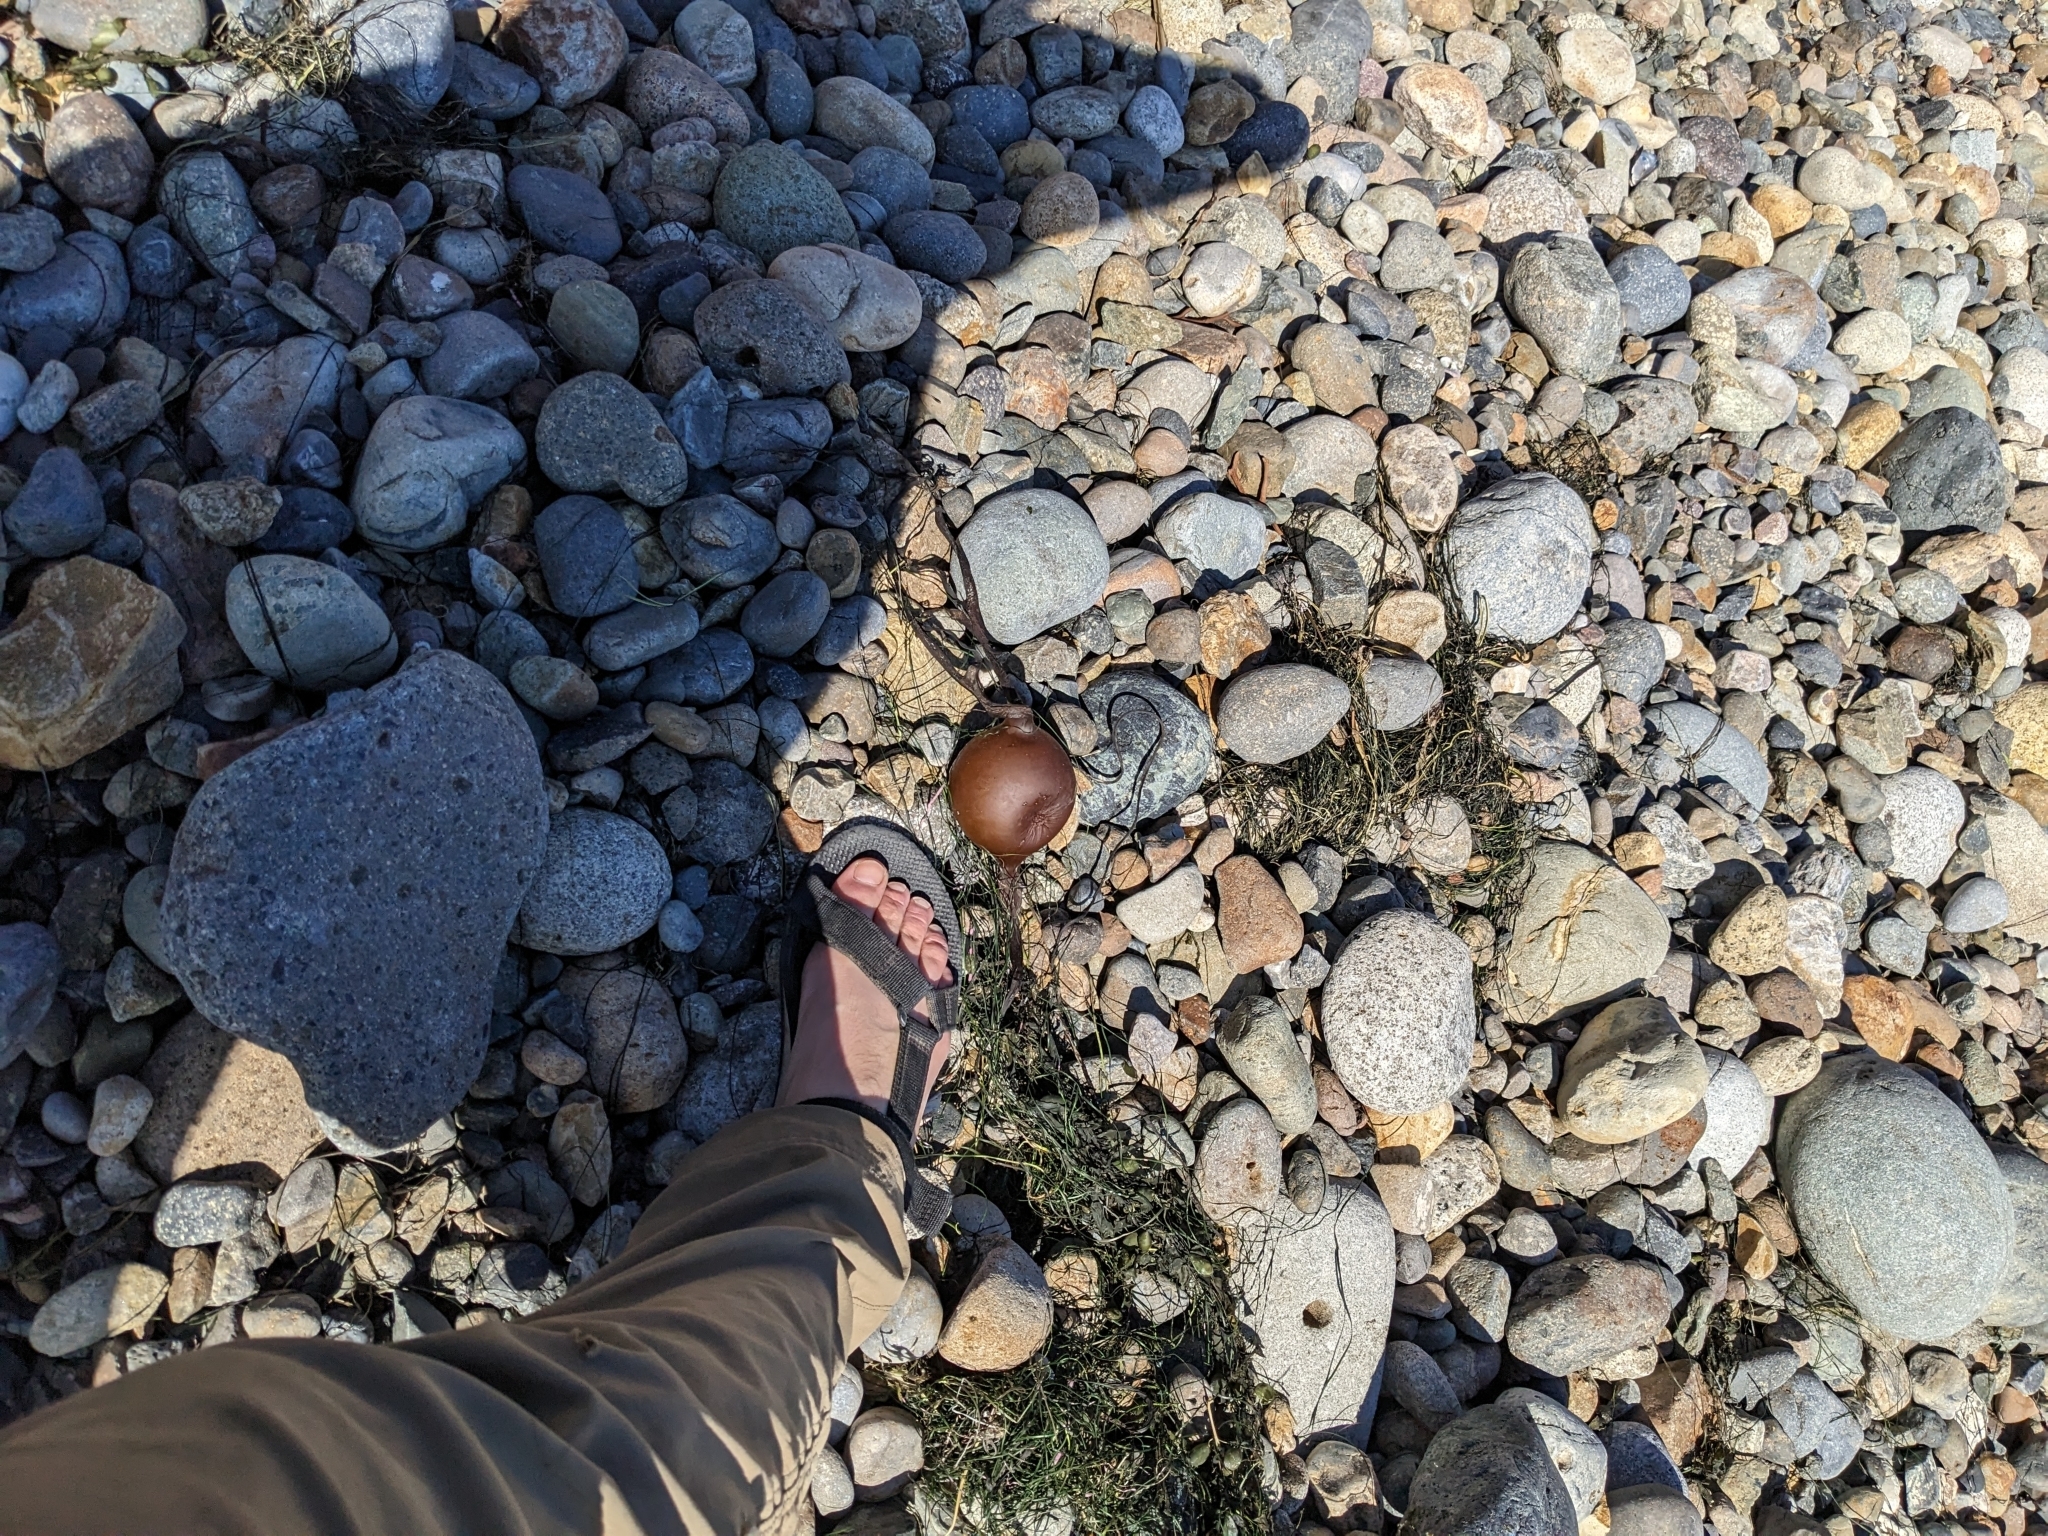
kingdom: Chromista
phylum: Ochrophyta
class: Phaeophyceae
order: Laminariales
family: Laminariaceae
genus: Pelagophycus
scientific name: Pelagophycus porra
